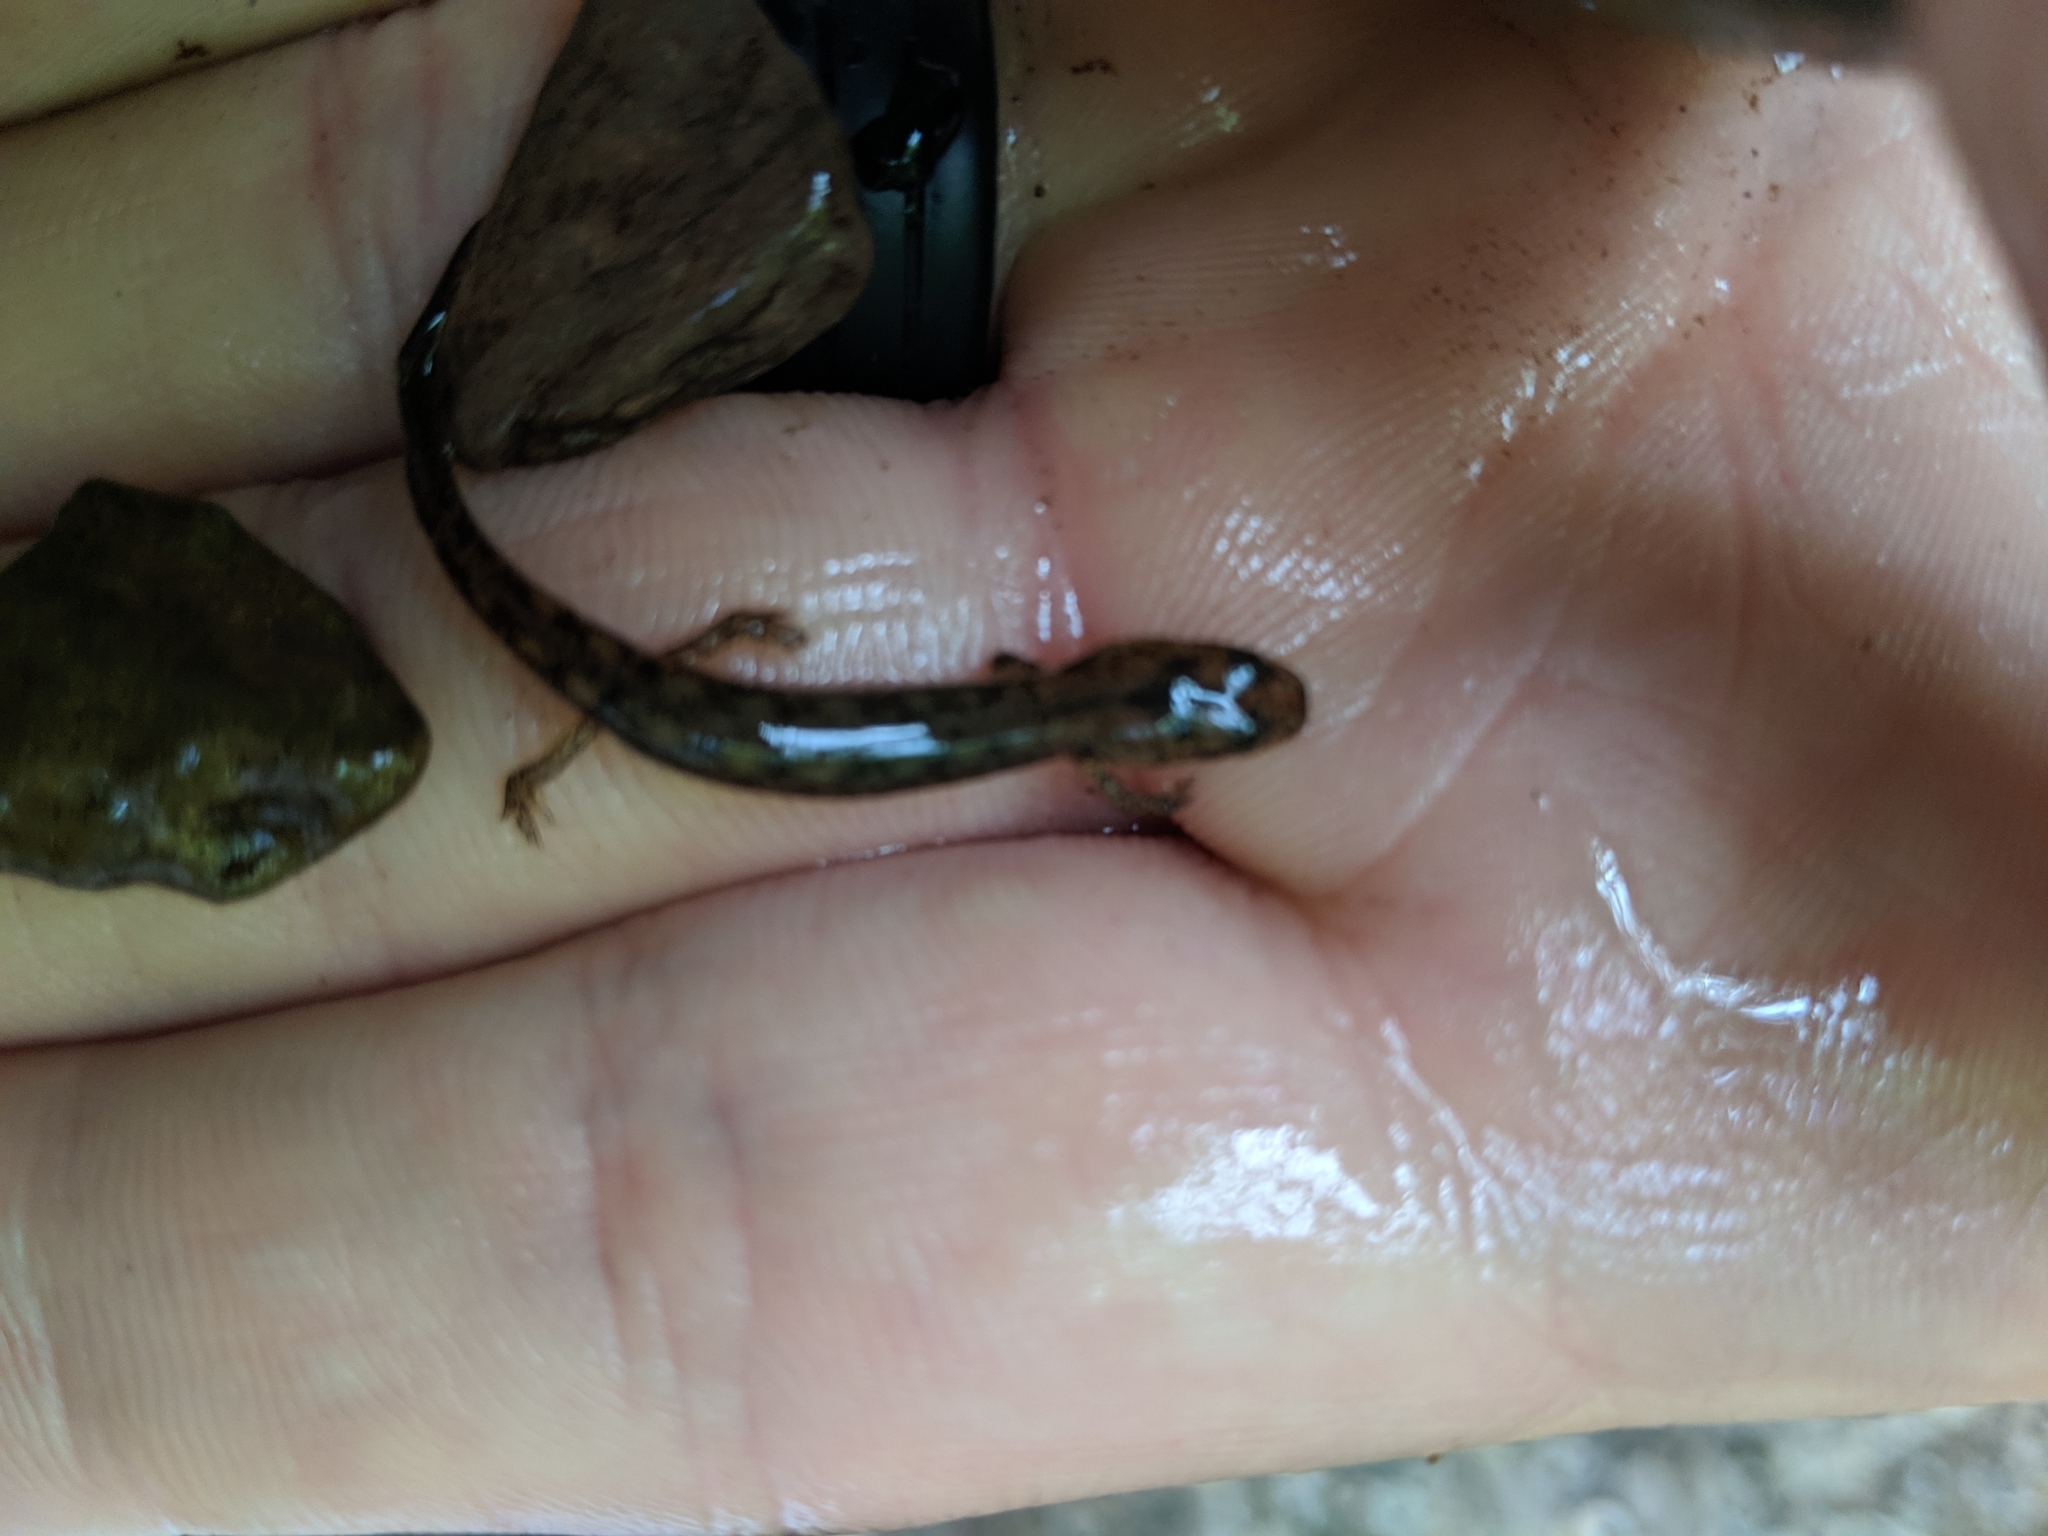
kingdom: Animalia
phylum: Chordata
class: Amphibia
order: Caudata
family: Plethodontidae
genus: Eurycea
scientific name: Eurycea bislineata
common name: Northern two-lined salamander
